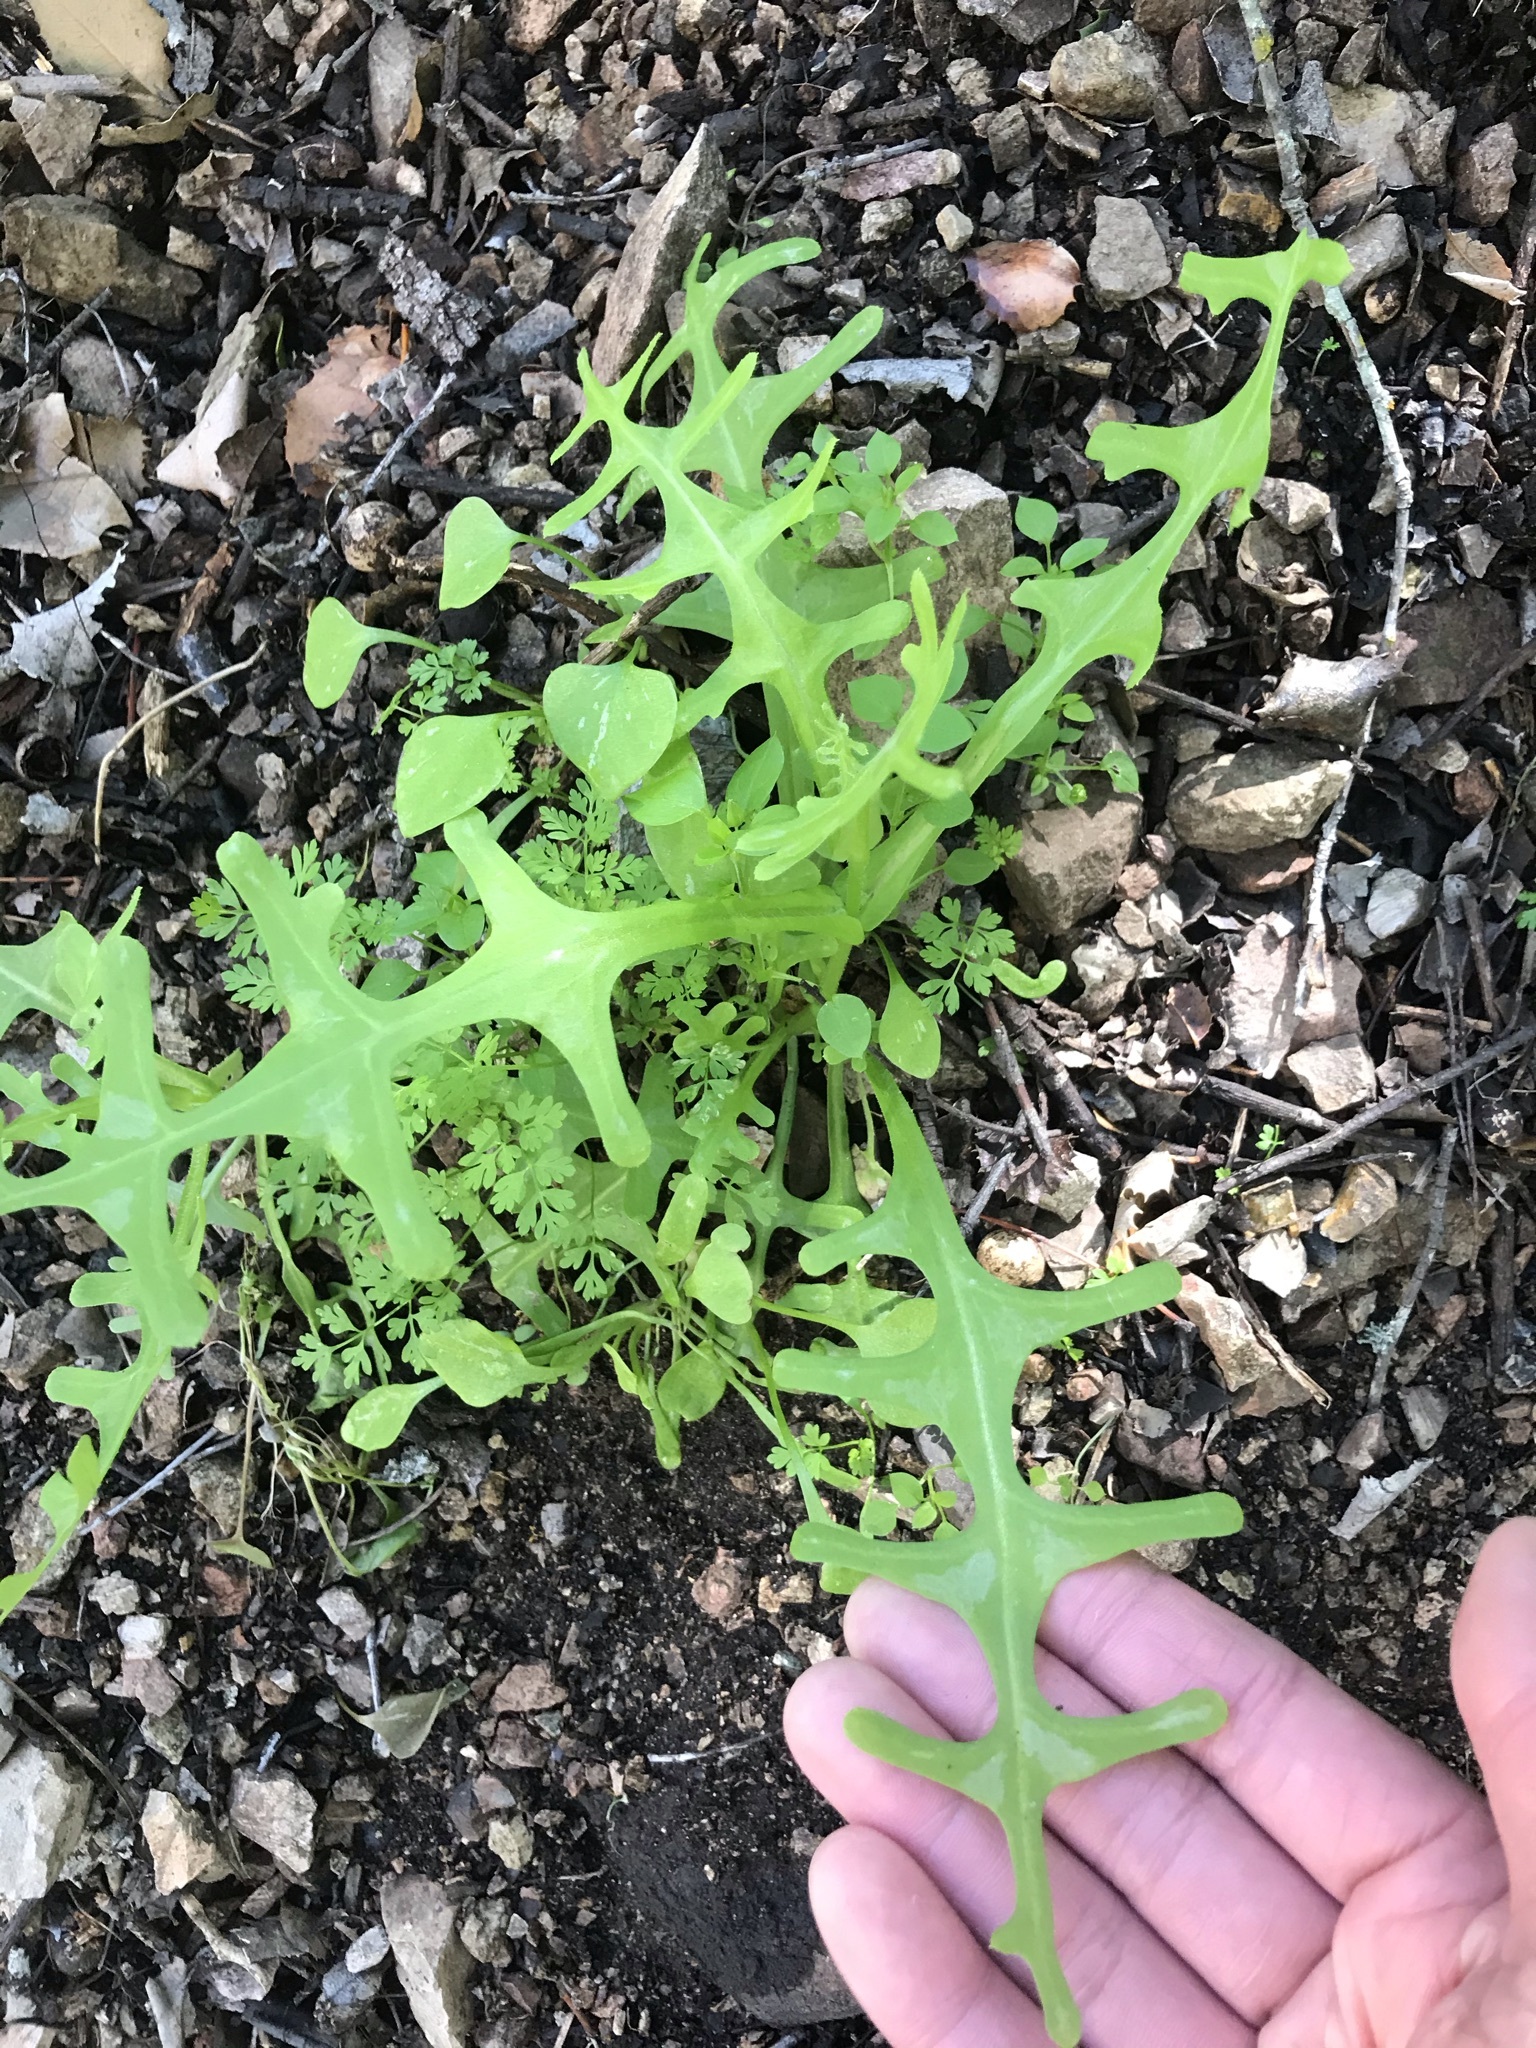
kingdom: Plantae
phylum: Tracheophyta
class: Magnoliopsida
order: Boraginales
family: Hydrophyllaceae
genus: Pholistoma
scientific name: Pholistoma auritum
